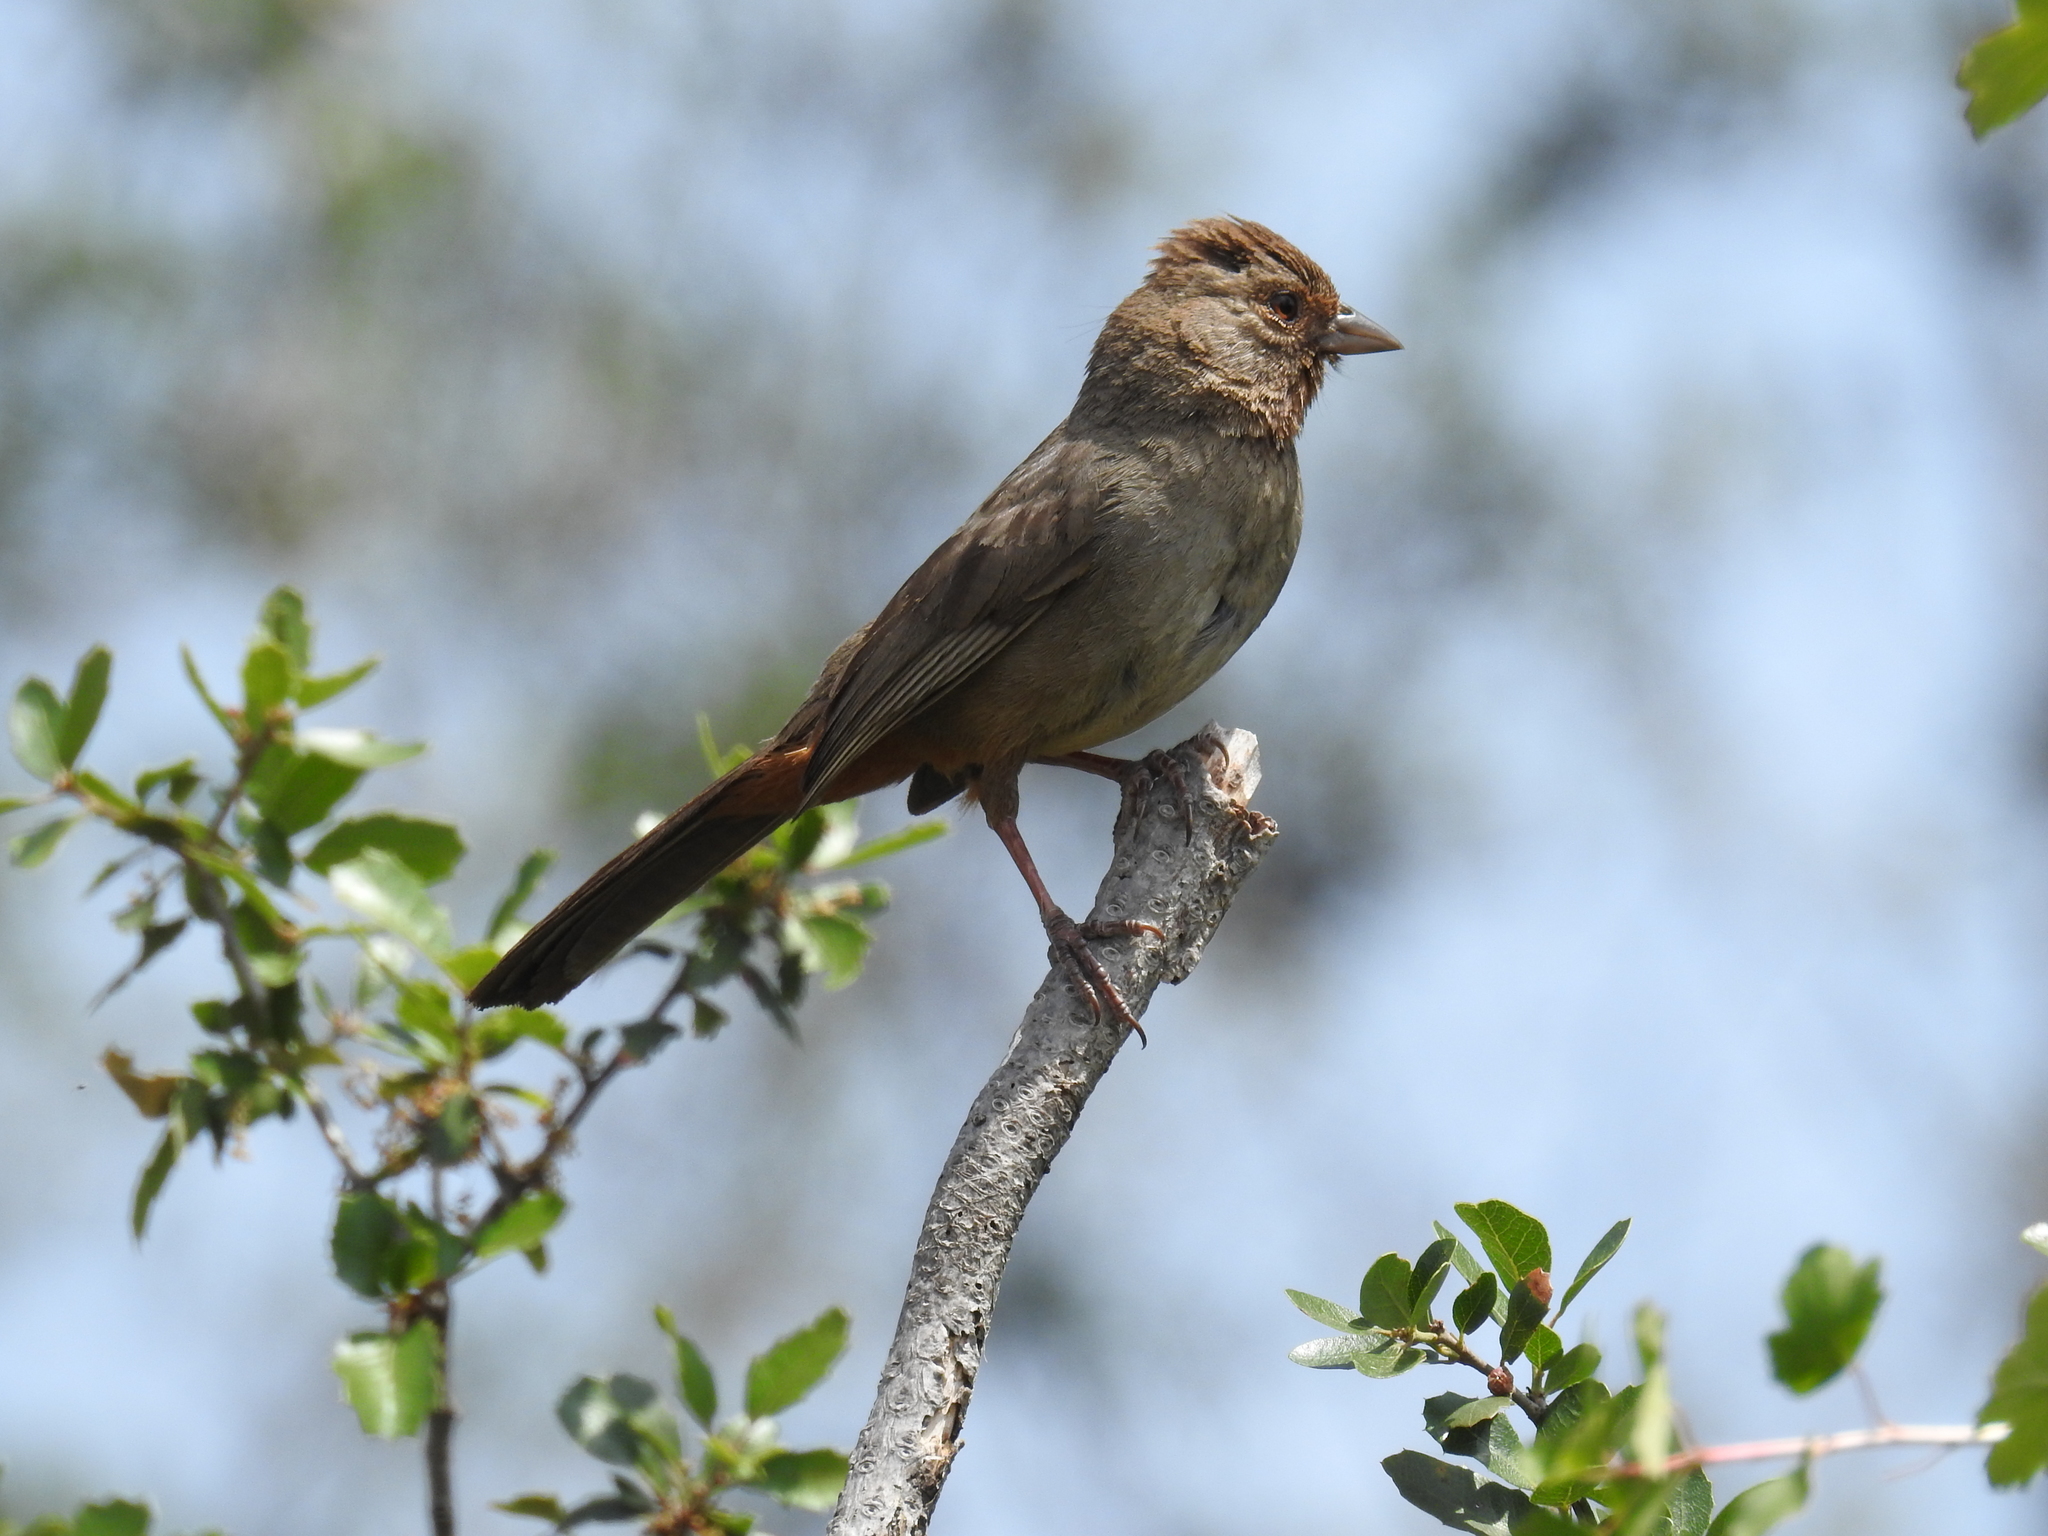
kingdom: Animalia
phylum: Chordata
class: Aves
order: Passeriformes
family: Passerellidae
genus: Melozone
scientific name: Melozone crissalis
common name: California towhee
